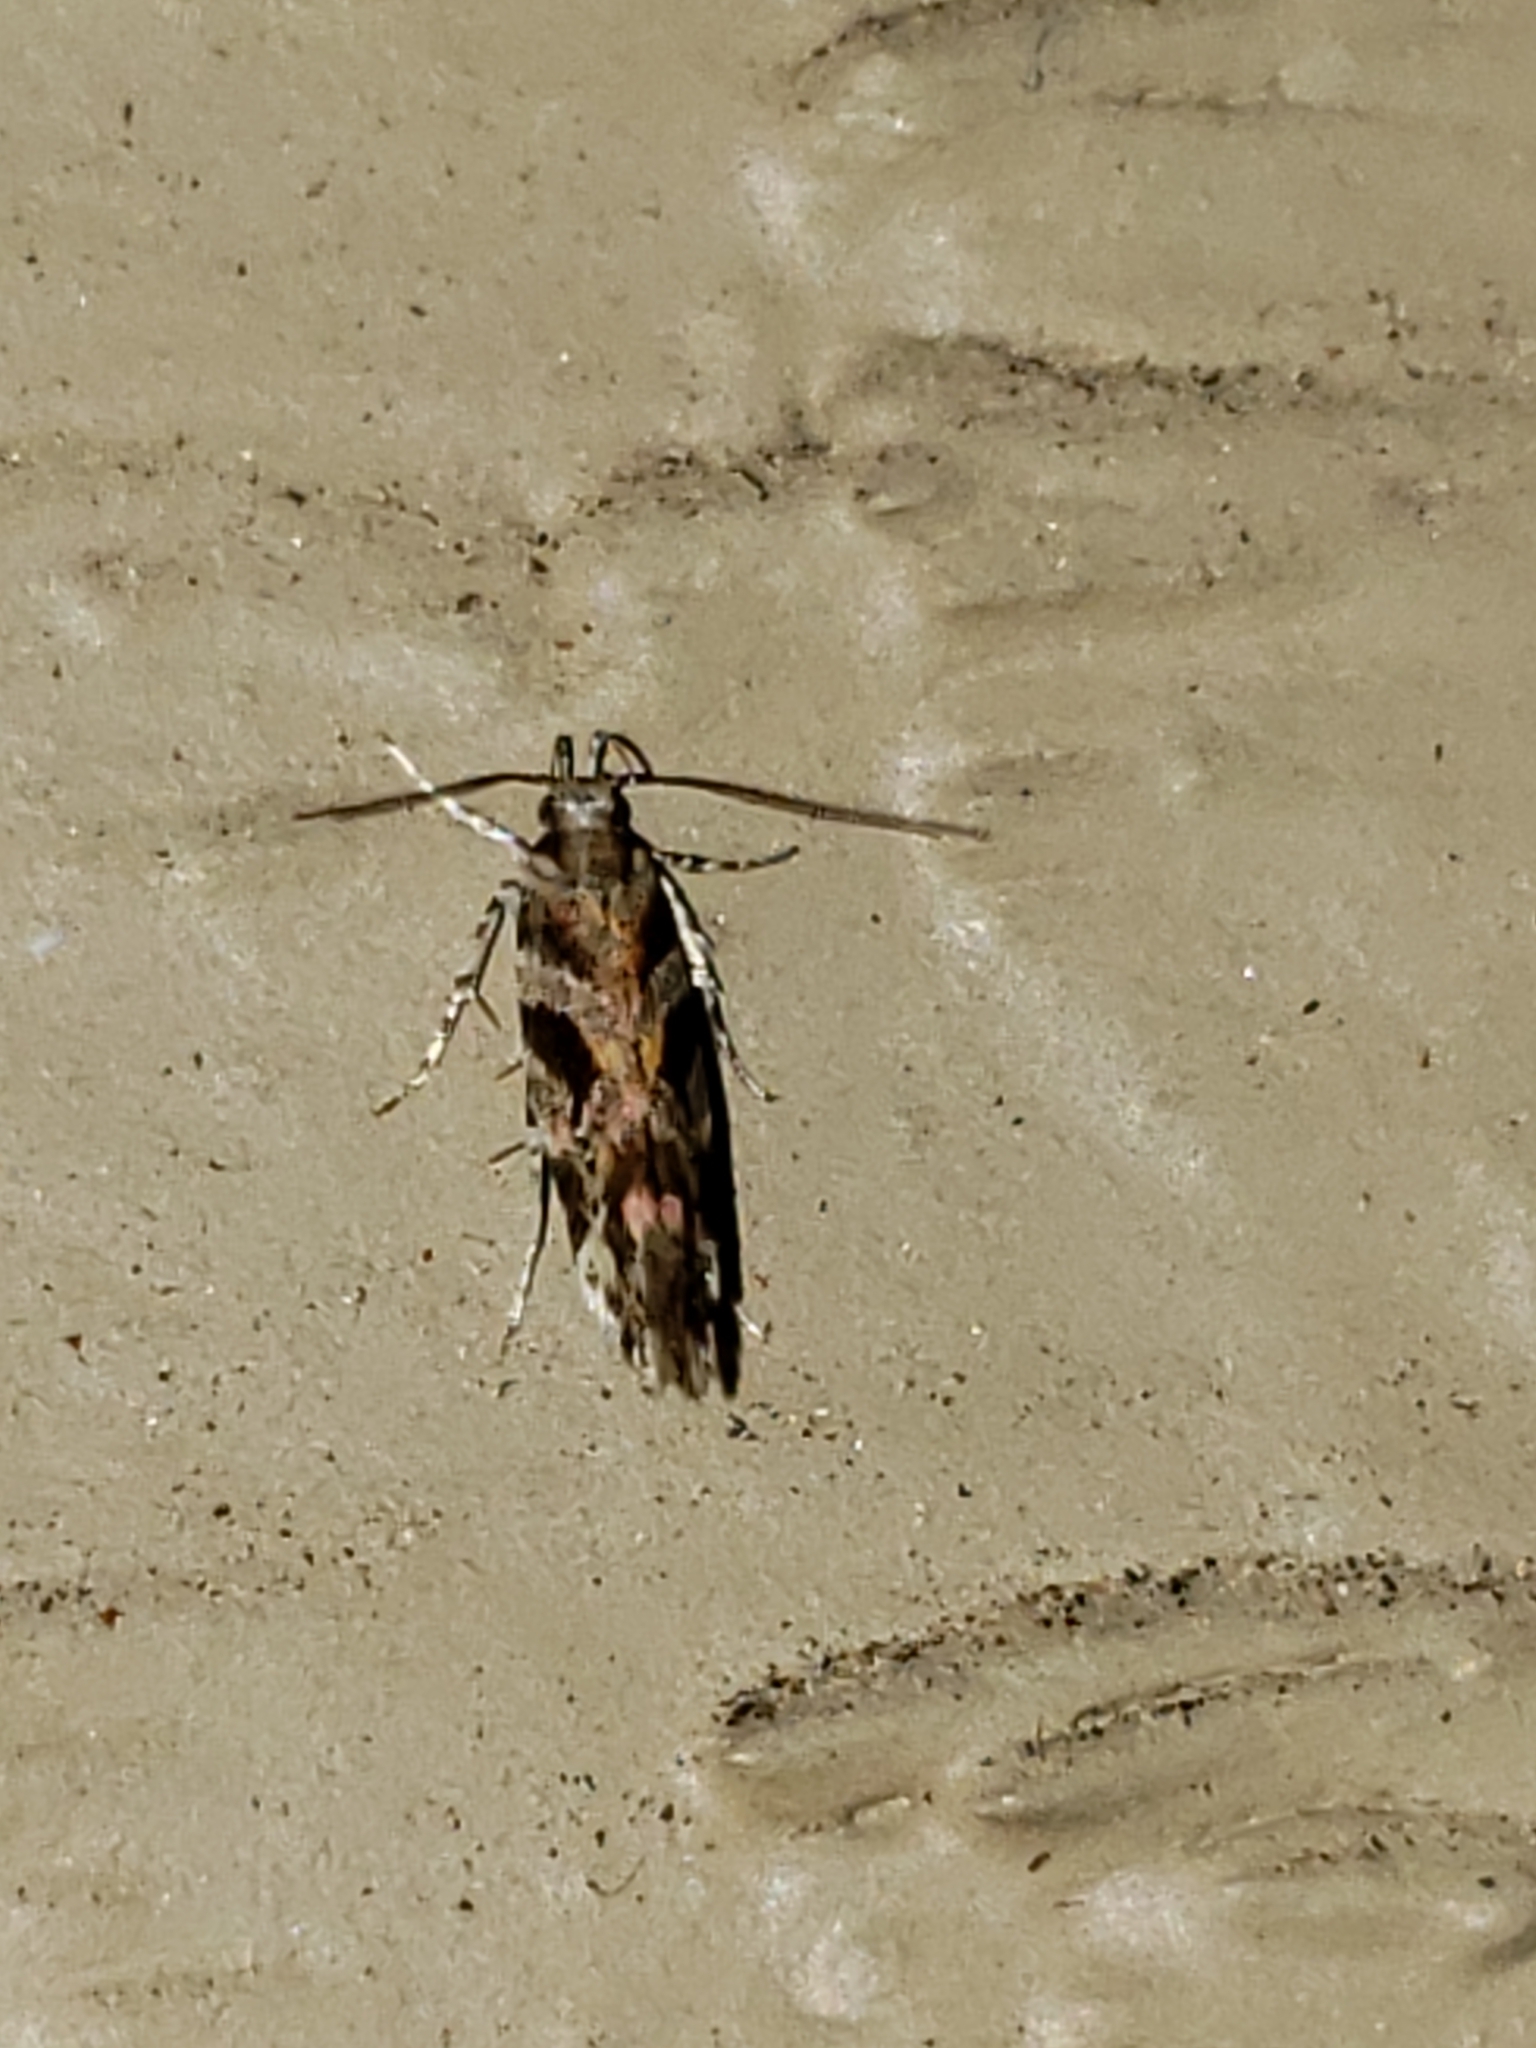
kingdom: Animalia
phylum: Arthropoda
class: Insecta
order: Lepidoptera
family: Gelechiidae
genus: Aristotelia
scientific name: Aristotelia roseosuffusella
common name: Pink-washed aristotelia moth
